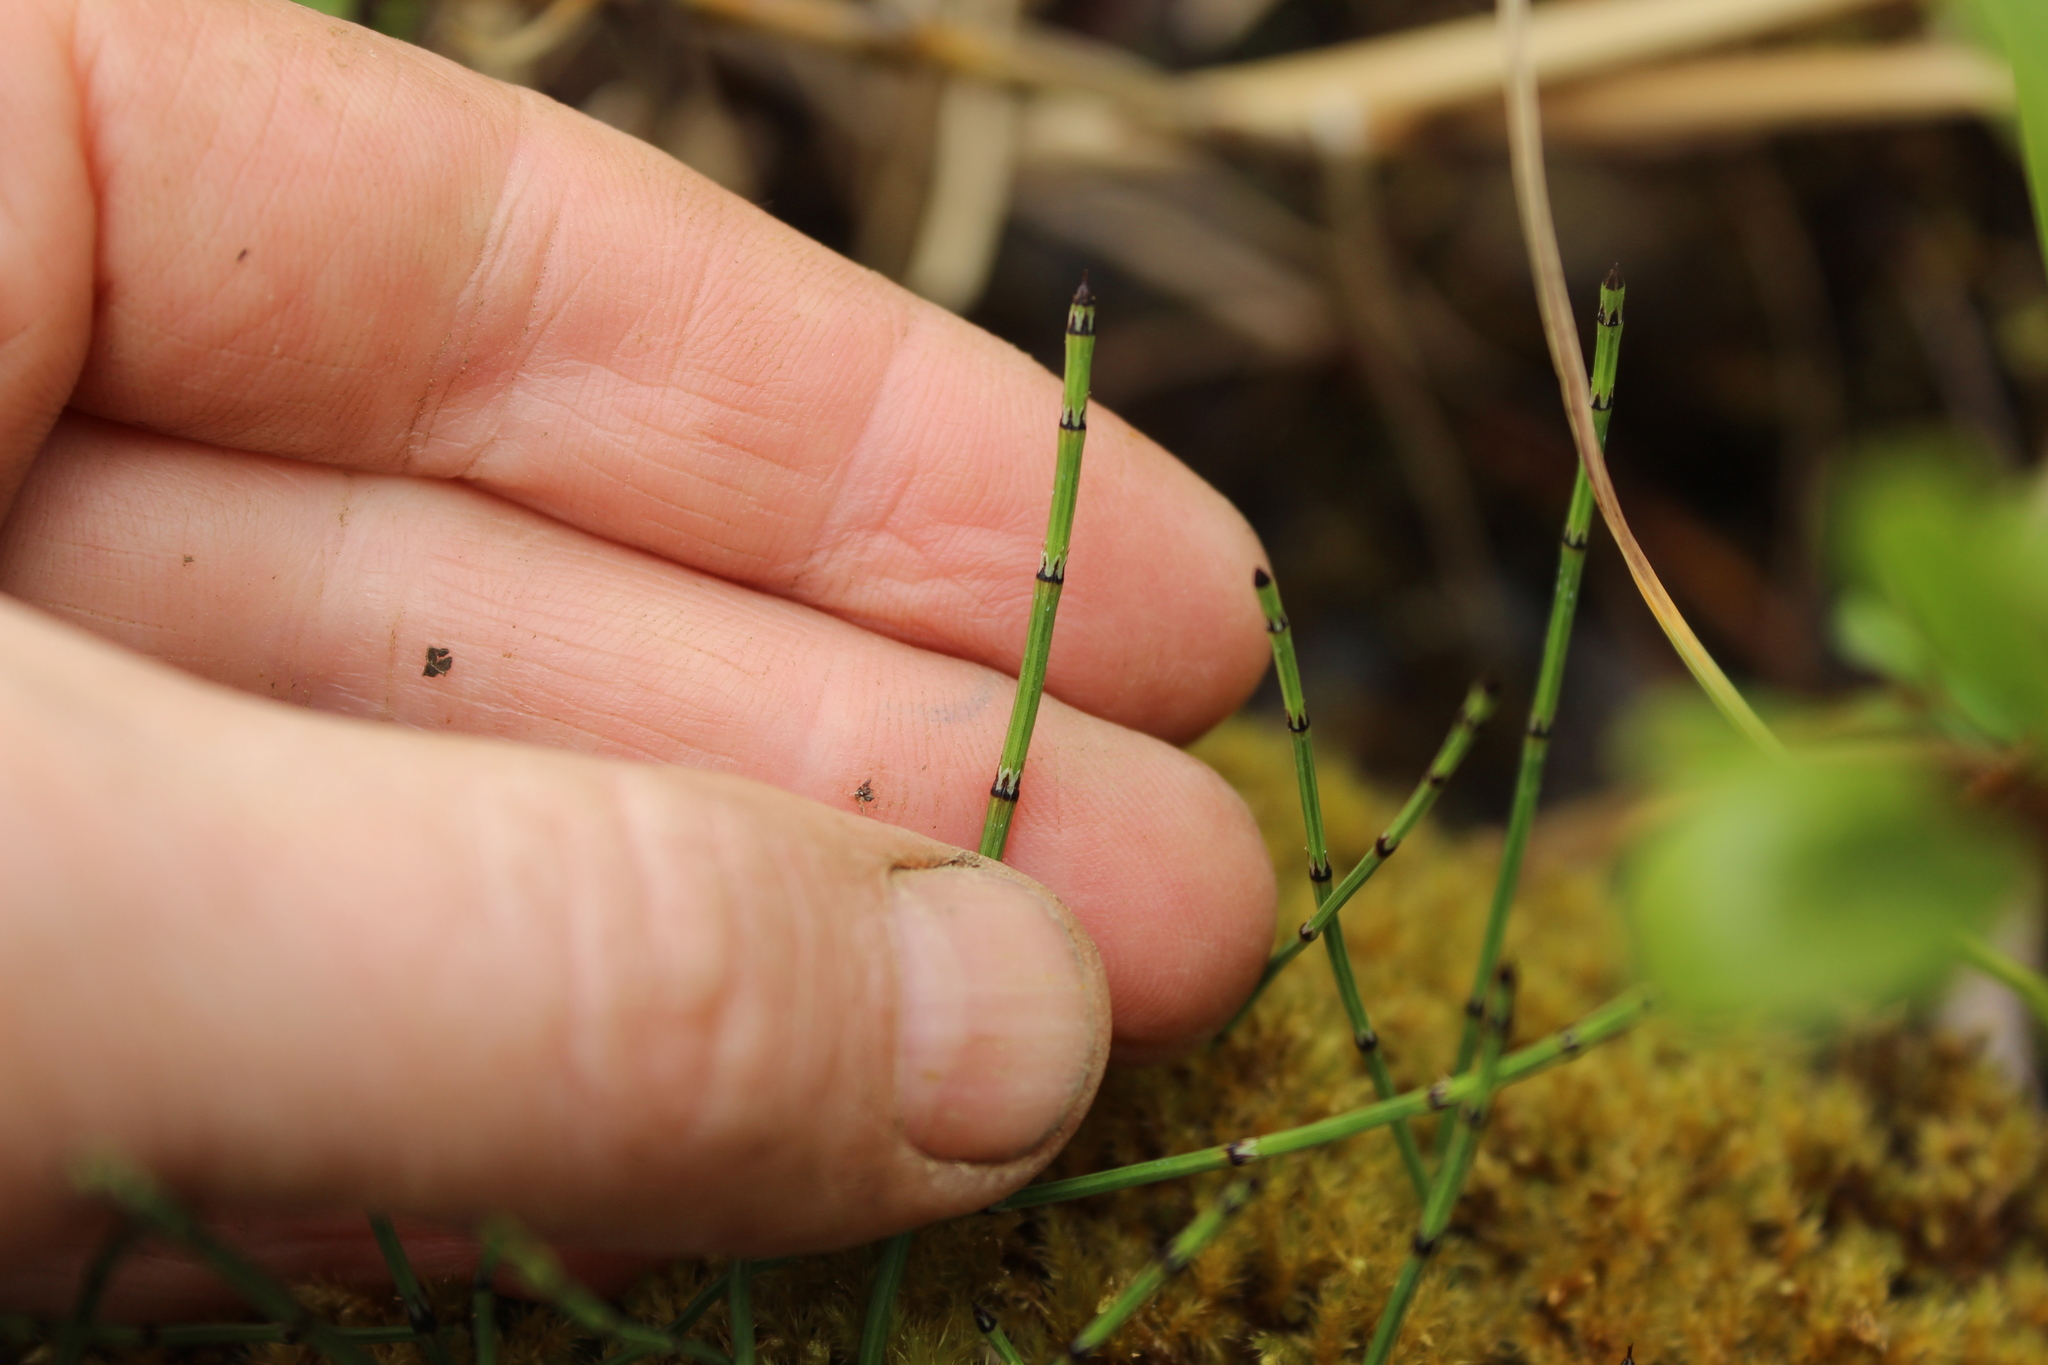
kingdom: Plantae
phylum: Tracheophyta
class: Polypodiopsida
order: Equisetales
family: Equisetaceae
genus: Equisetum
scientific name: Equisetum scirpoides
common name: Delicate horsetail
